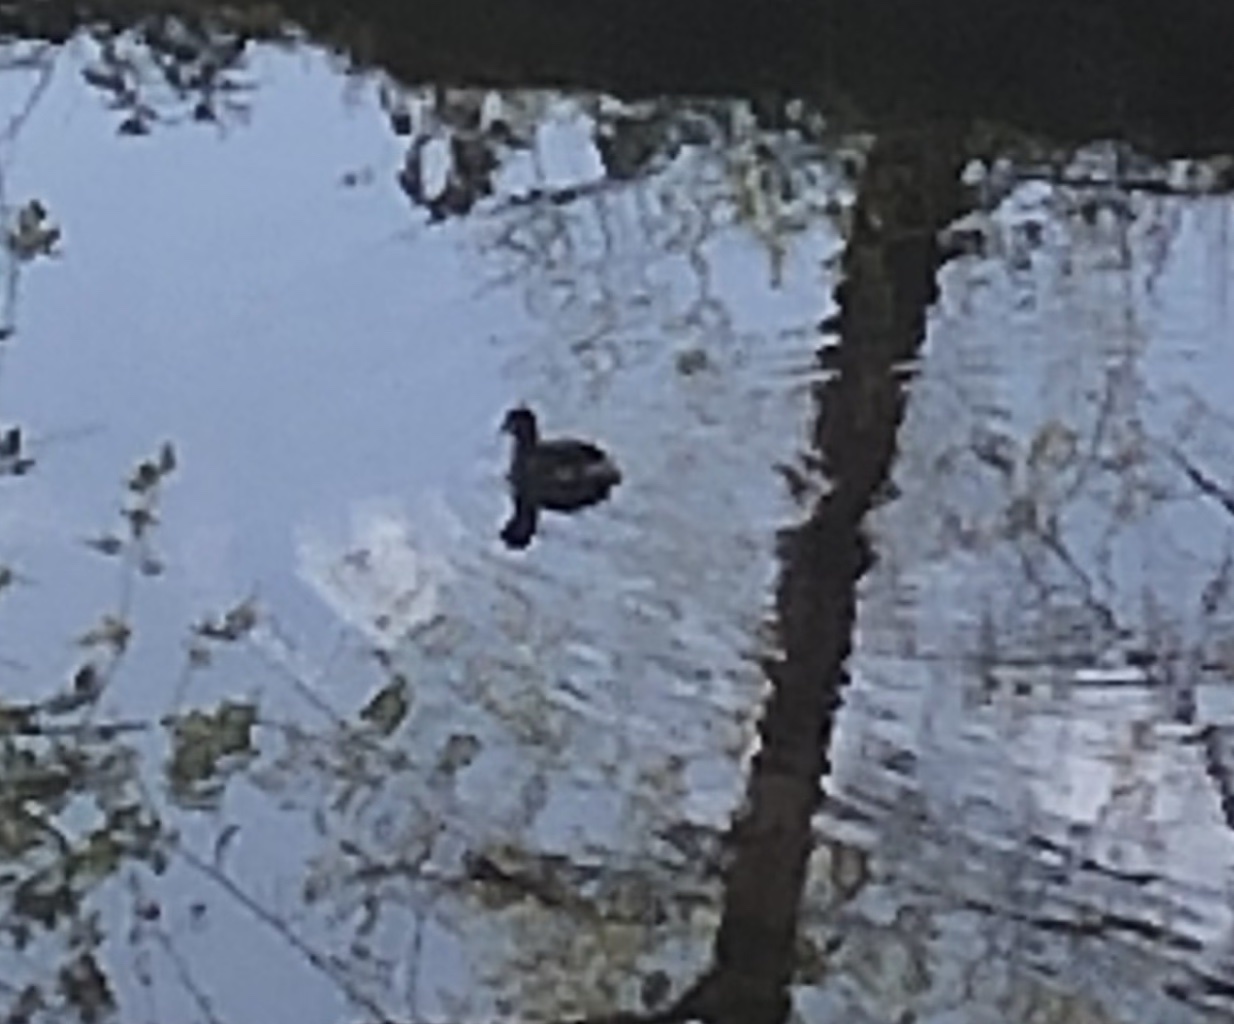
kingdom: Animalia
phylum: Chordata
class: Aves
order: Podicipediformes
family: Podicipedidae
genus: Tachybaptus
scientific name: Tachybaptus ruficollis
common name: Little grebe
